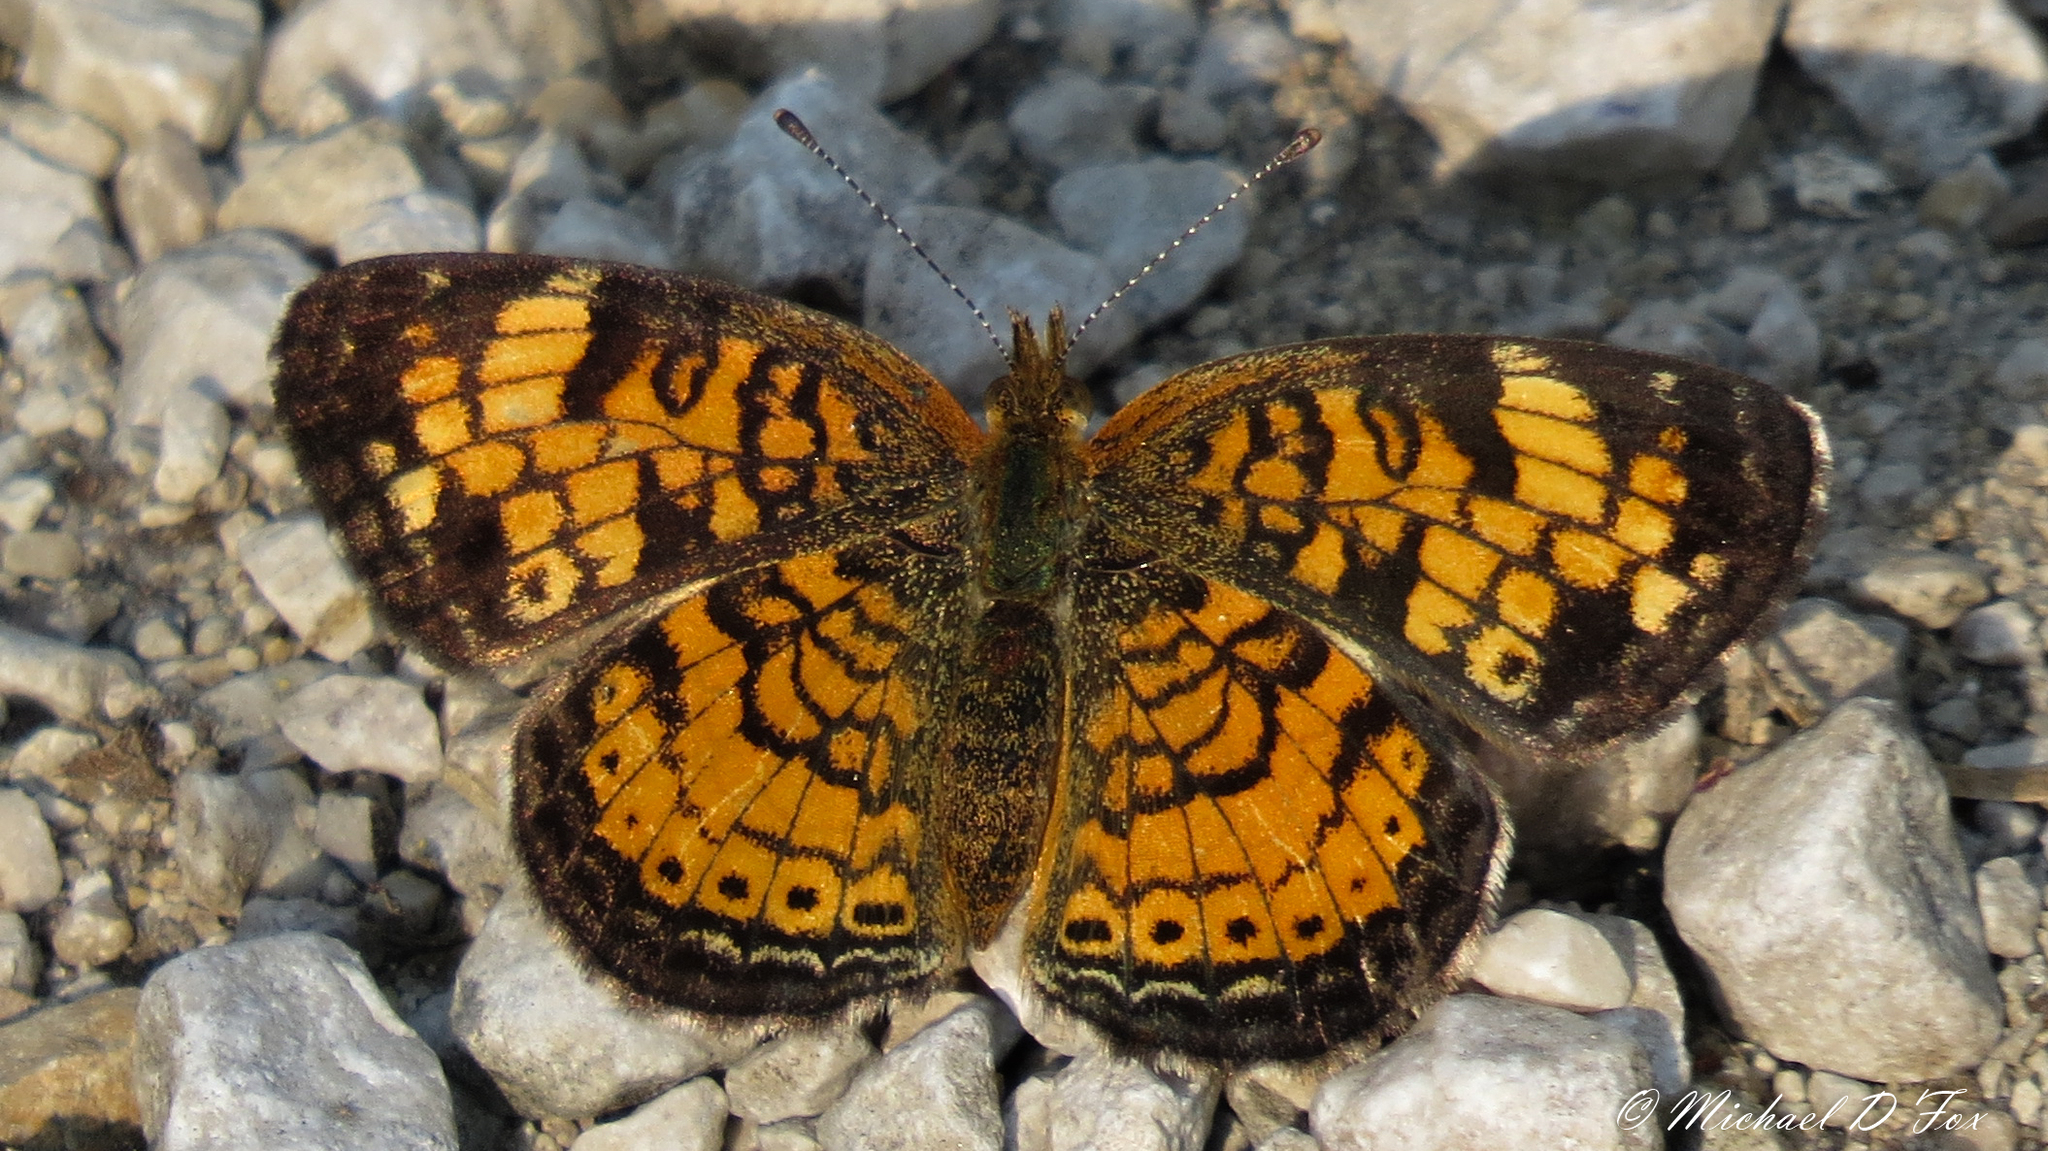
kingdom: Animalia
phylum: Arthropoda
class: Insecta
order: Lepidoptera
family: Nymphalidae
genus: Phyciodes
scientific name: Phyciodes tharos
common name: Pearl crescent
